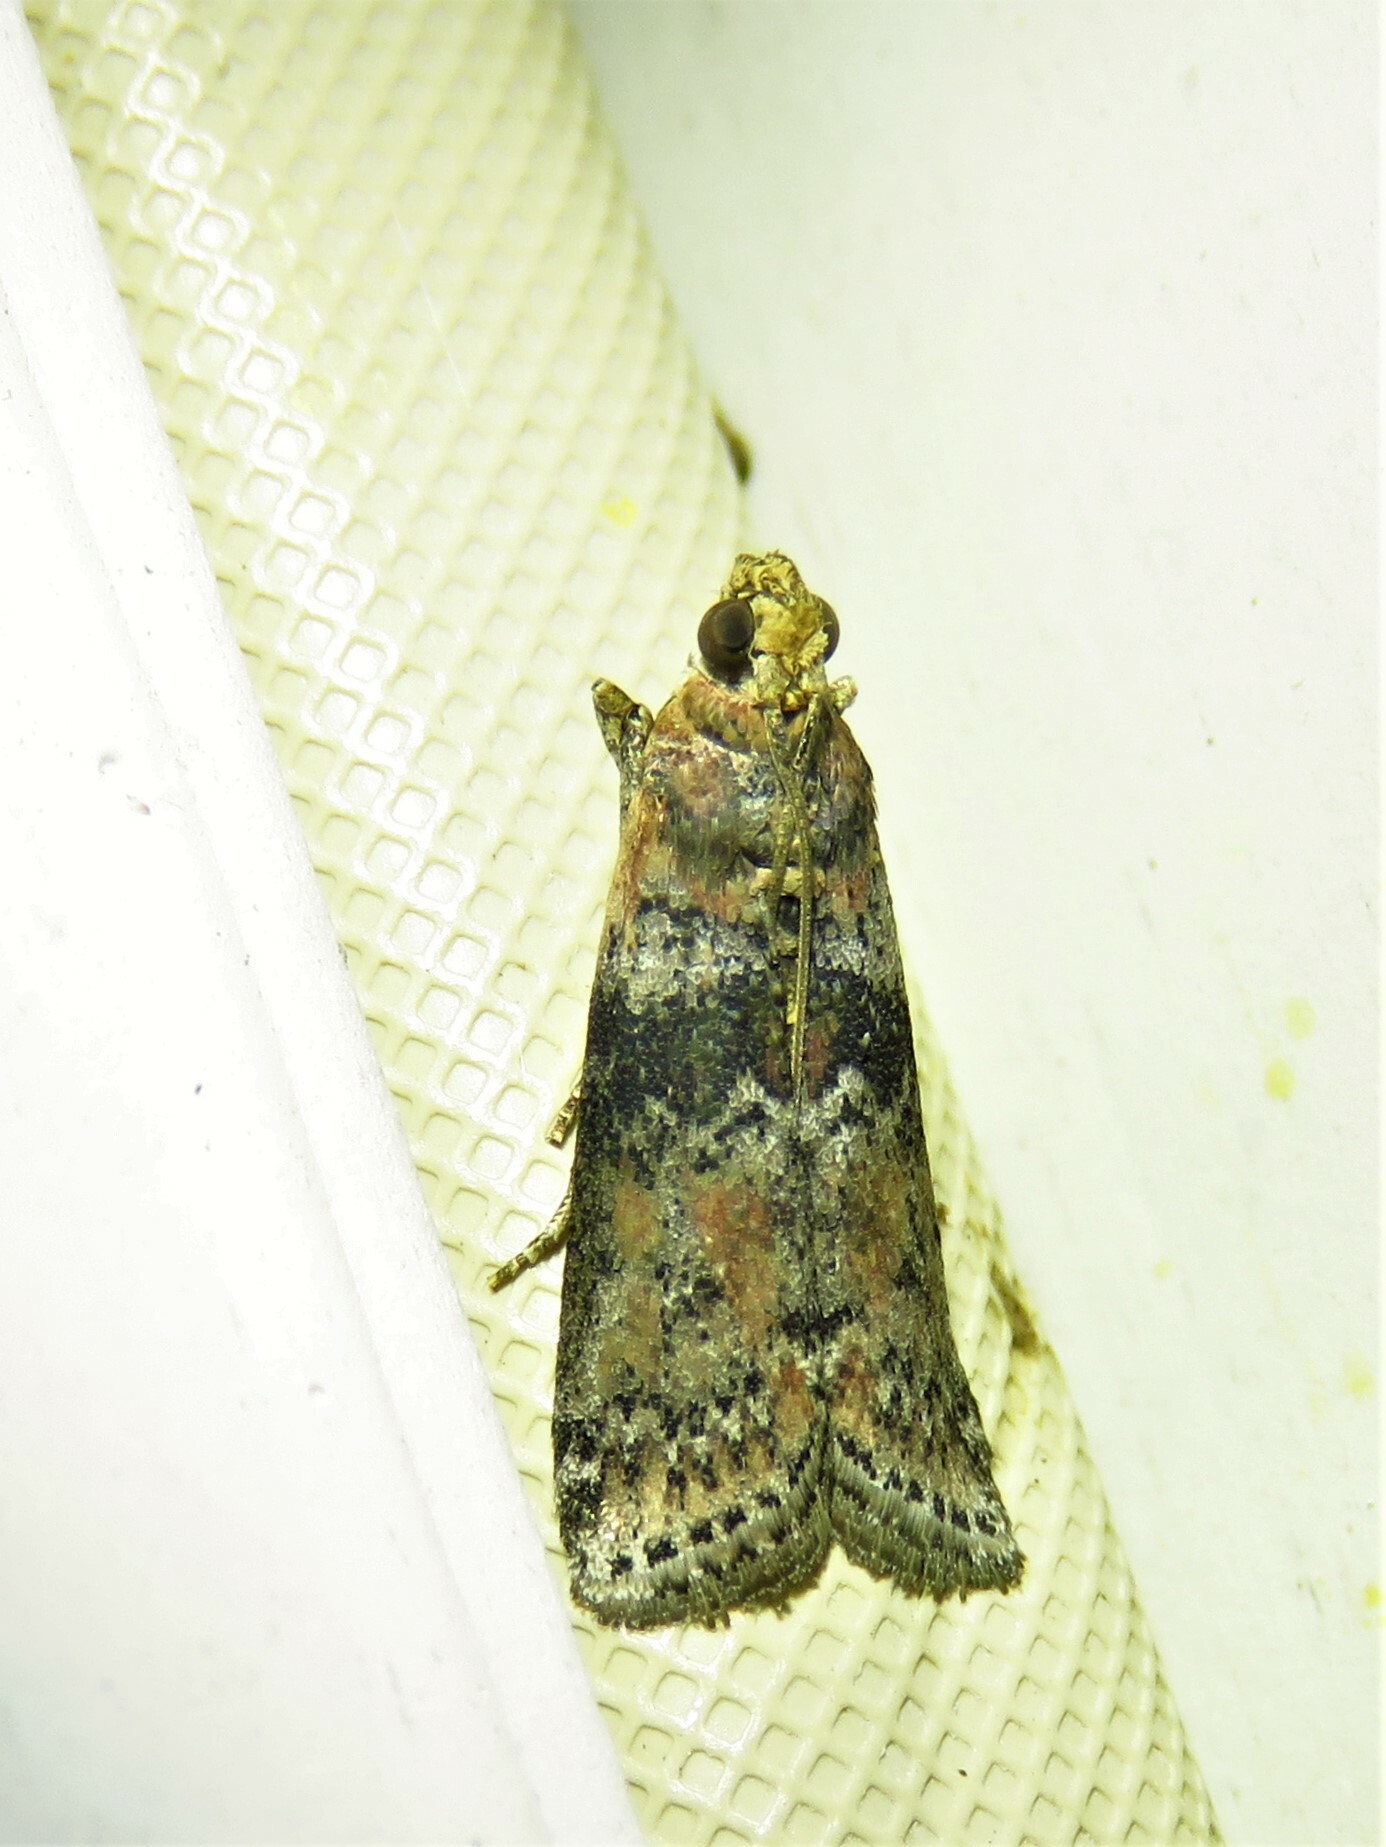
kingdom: Animalia
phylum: Arthropoda
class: Insecta
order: Lepidoptera
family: Pyralidae
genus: Sciota
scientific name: Sciota celtidella
